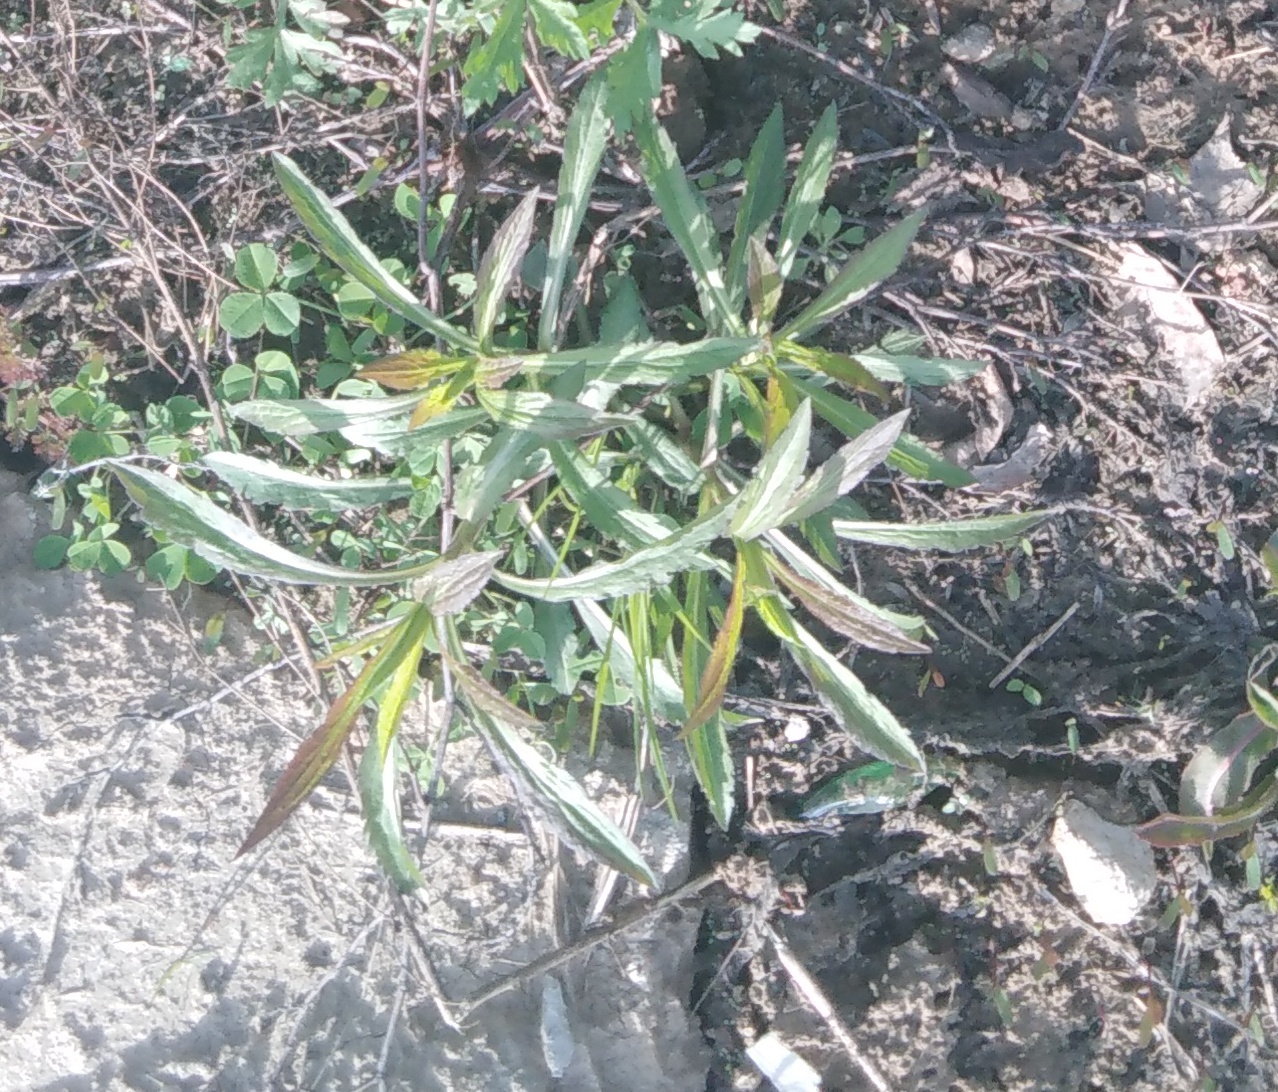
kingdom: Plantae
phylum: Tracheophyta
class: Magnoliopsida
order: Asterales
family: Asteraceae
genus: Solidago
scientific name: Solidago canadensis
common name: Canada goldenrod
